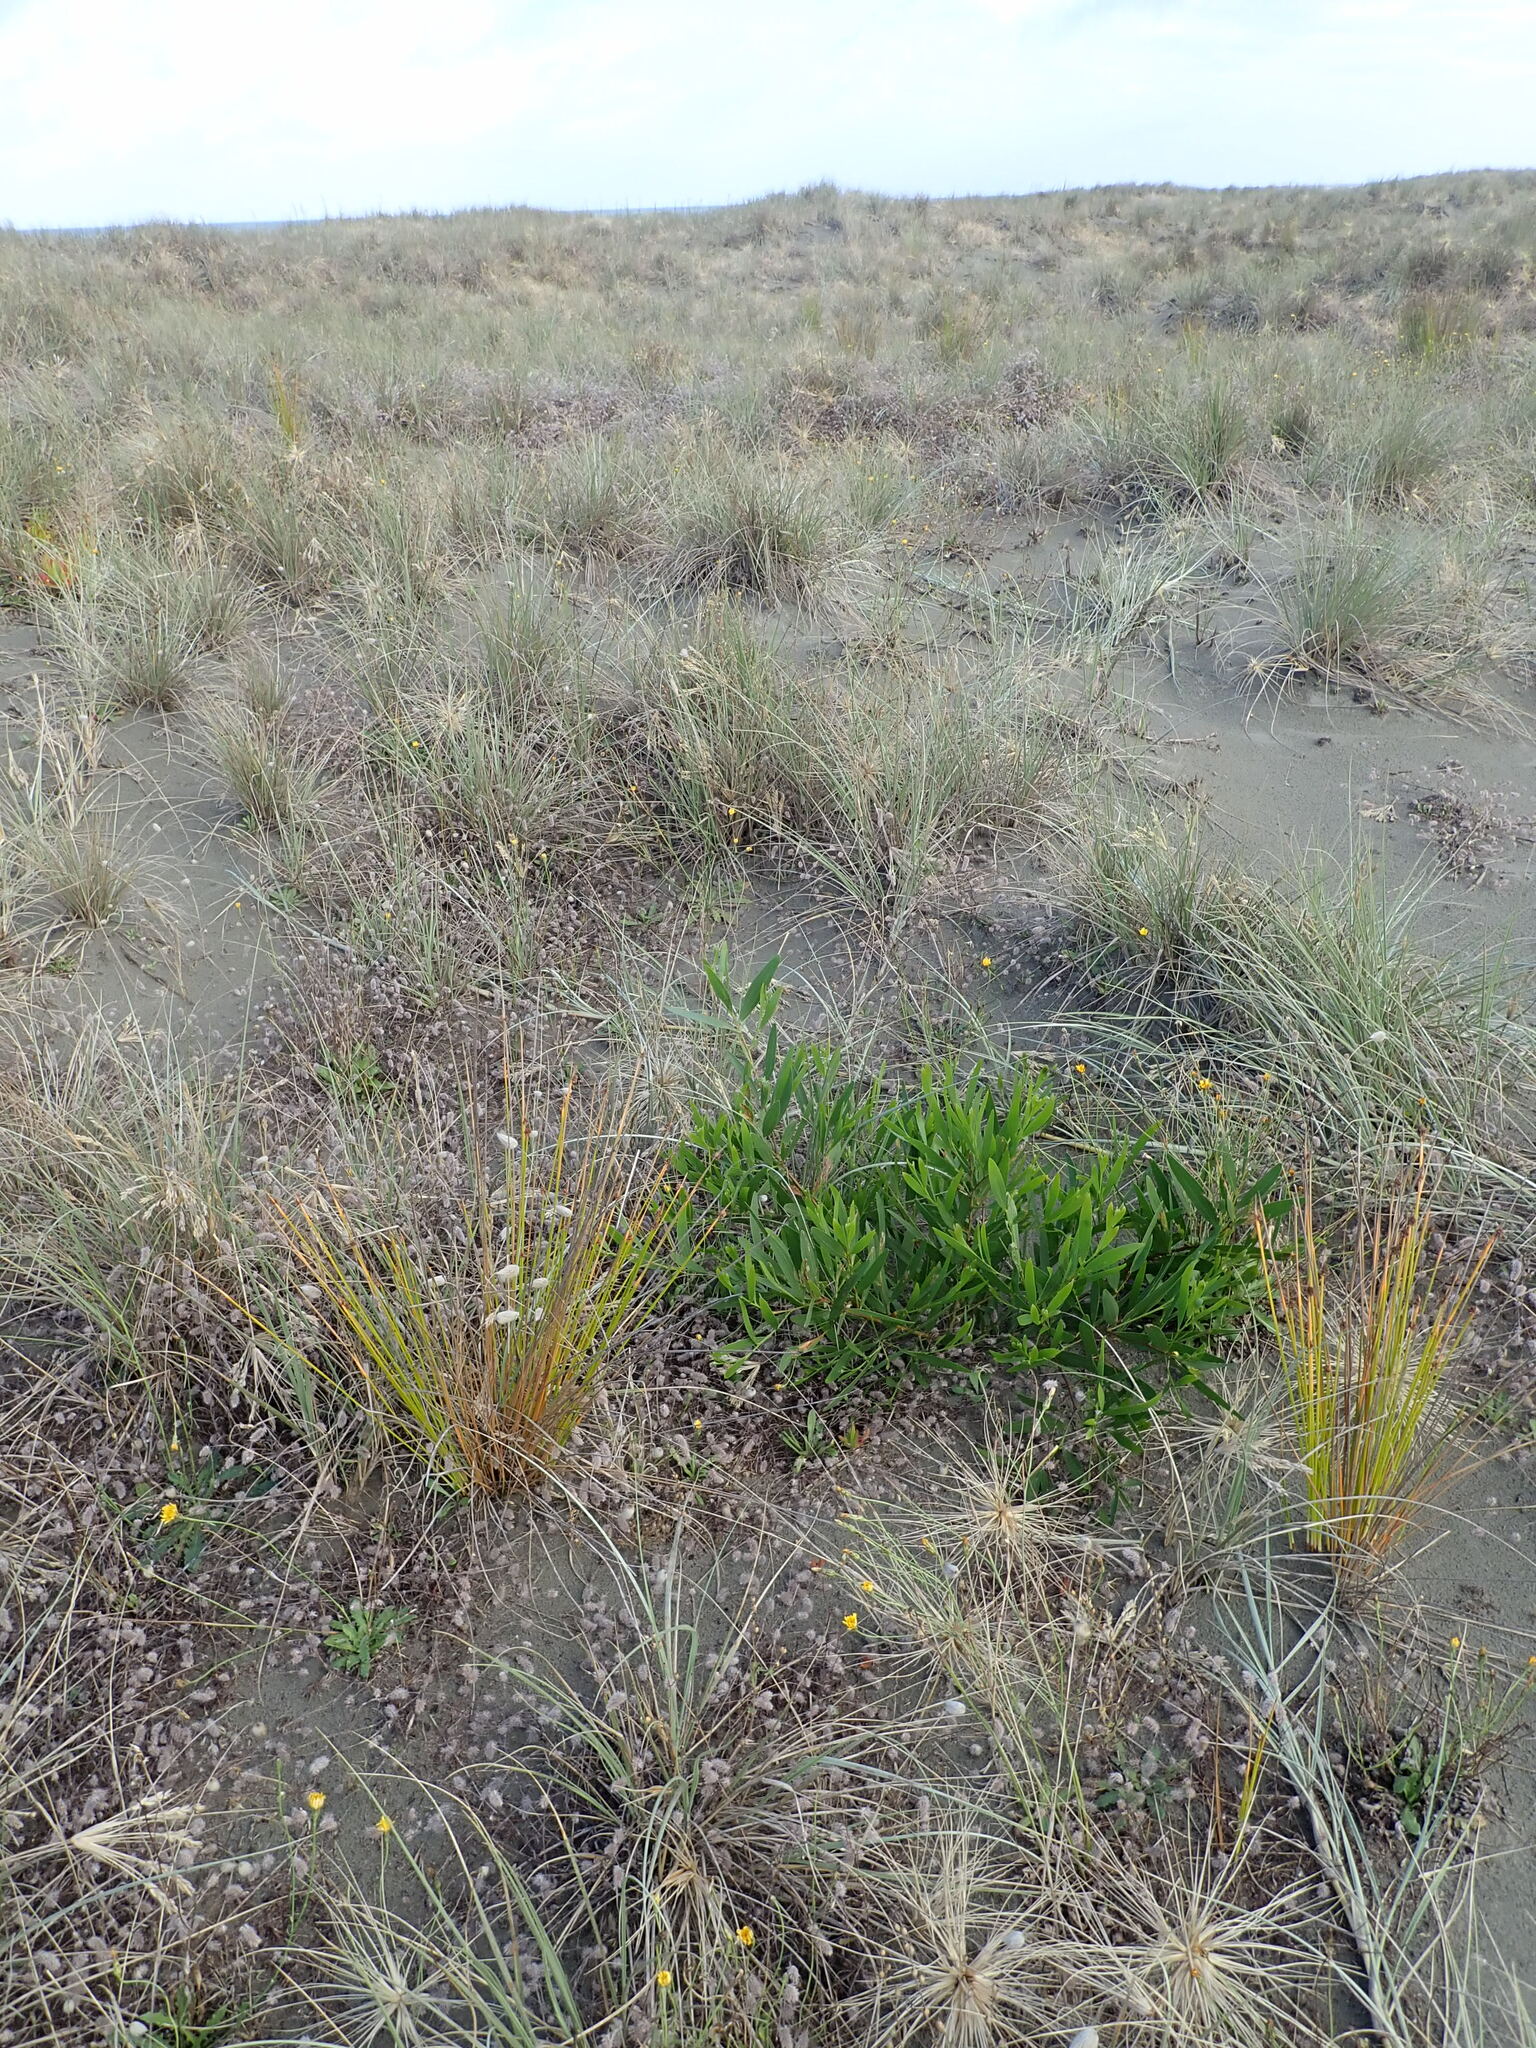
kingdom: Plantae
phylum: Tracheophyta
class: Magnoliopsida
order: Fabales
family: Fabaceae
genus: Acacia
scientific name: Acacia longifolia
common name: Sydney golden wattle
